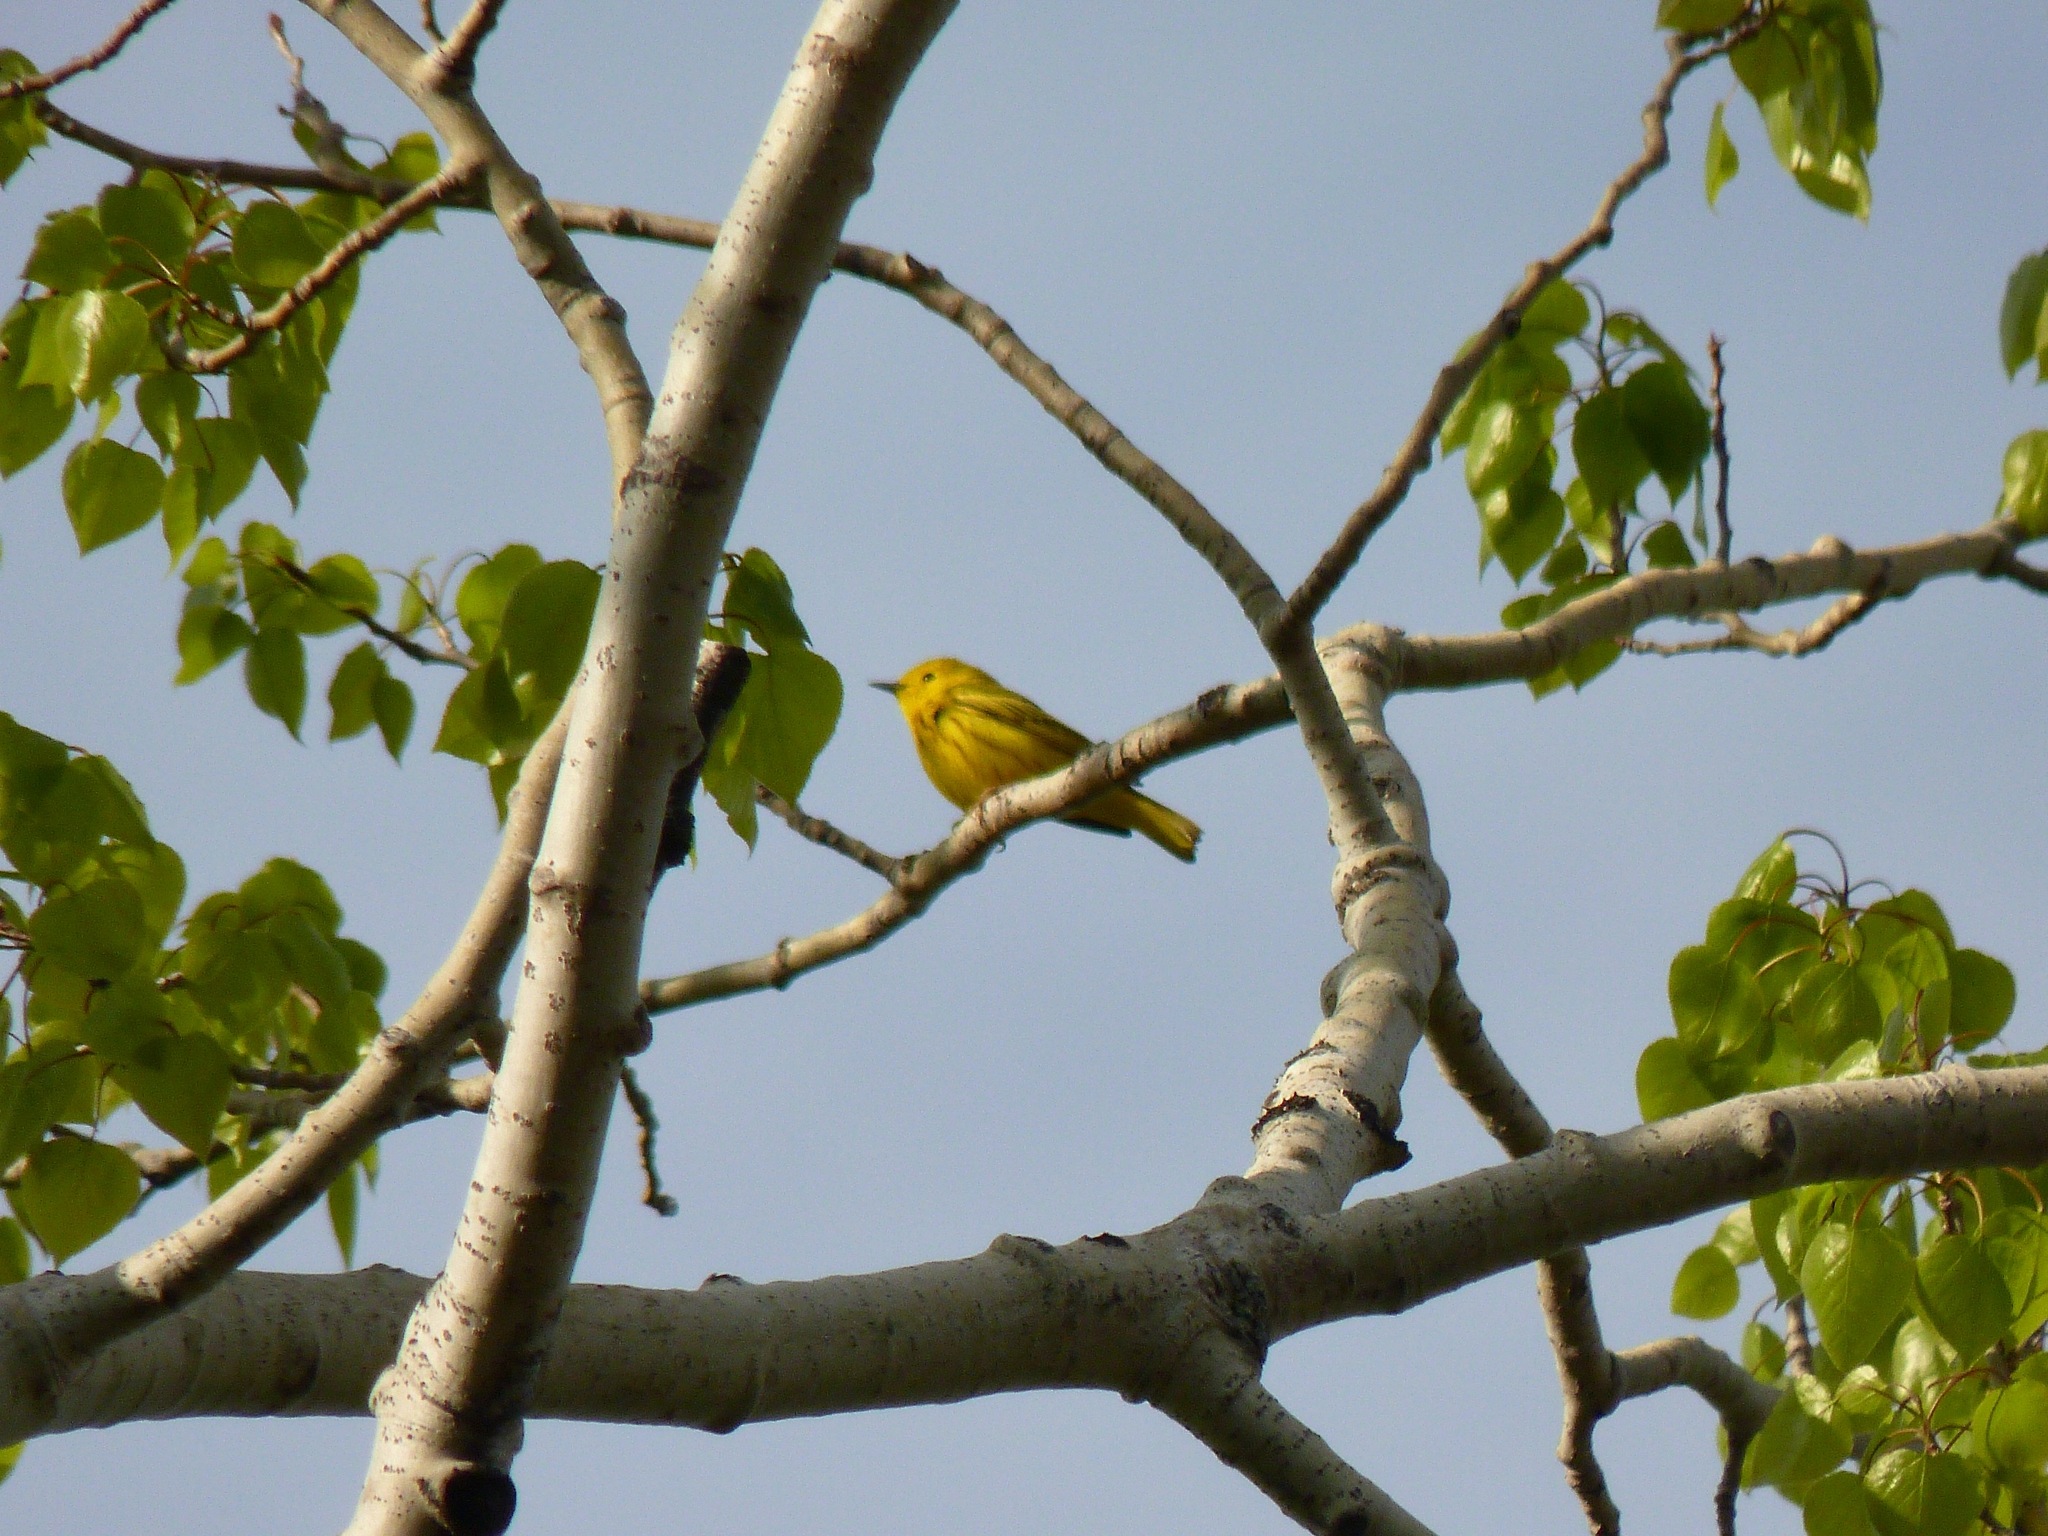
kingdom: Animalia
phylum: Chordata
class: Aves
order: Passeriformes
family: Parulidae
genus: Setophaga
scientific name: Setophaga petechia
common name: Yellow warbler
